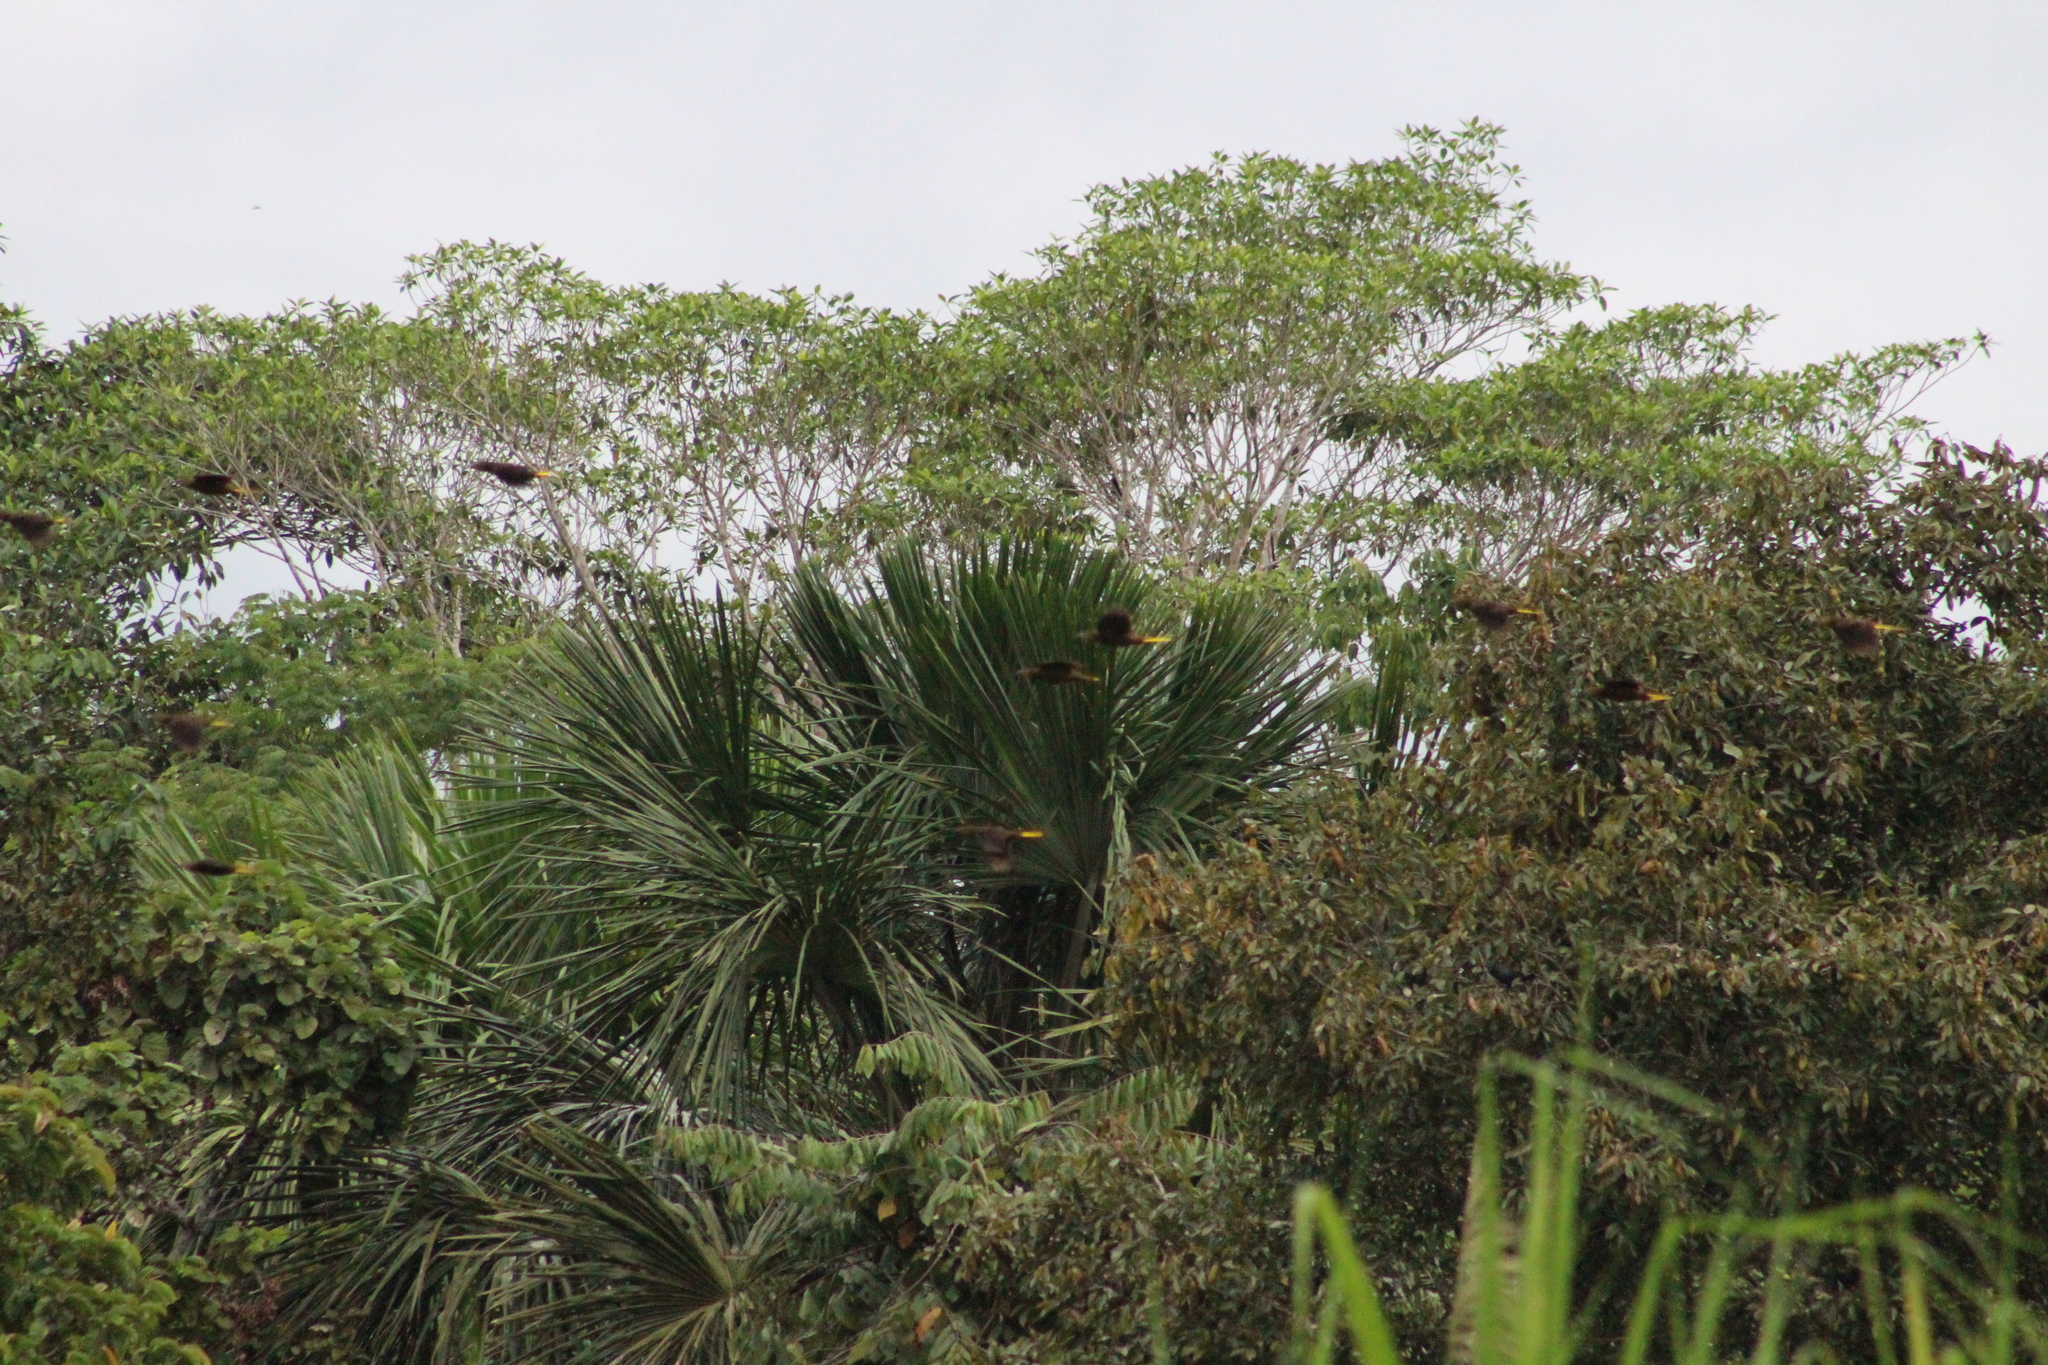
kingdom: Animalia
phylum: Chordata
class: Aves
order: Passeriformes
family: Icteridae
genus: Psarocolius
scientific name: Psarocolius angustifrons
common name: Russet-backed oropendola
